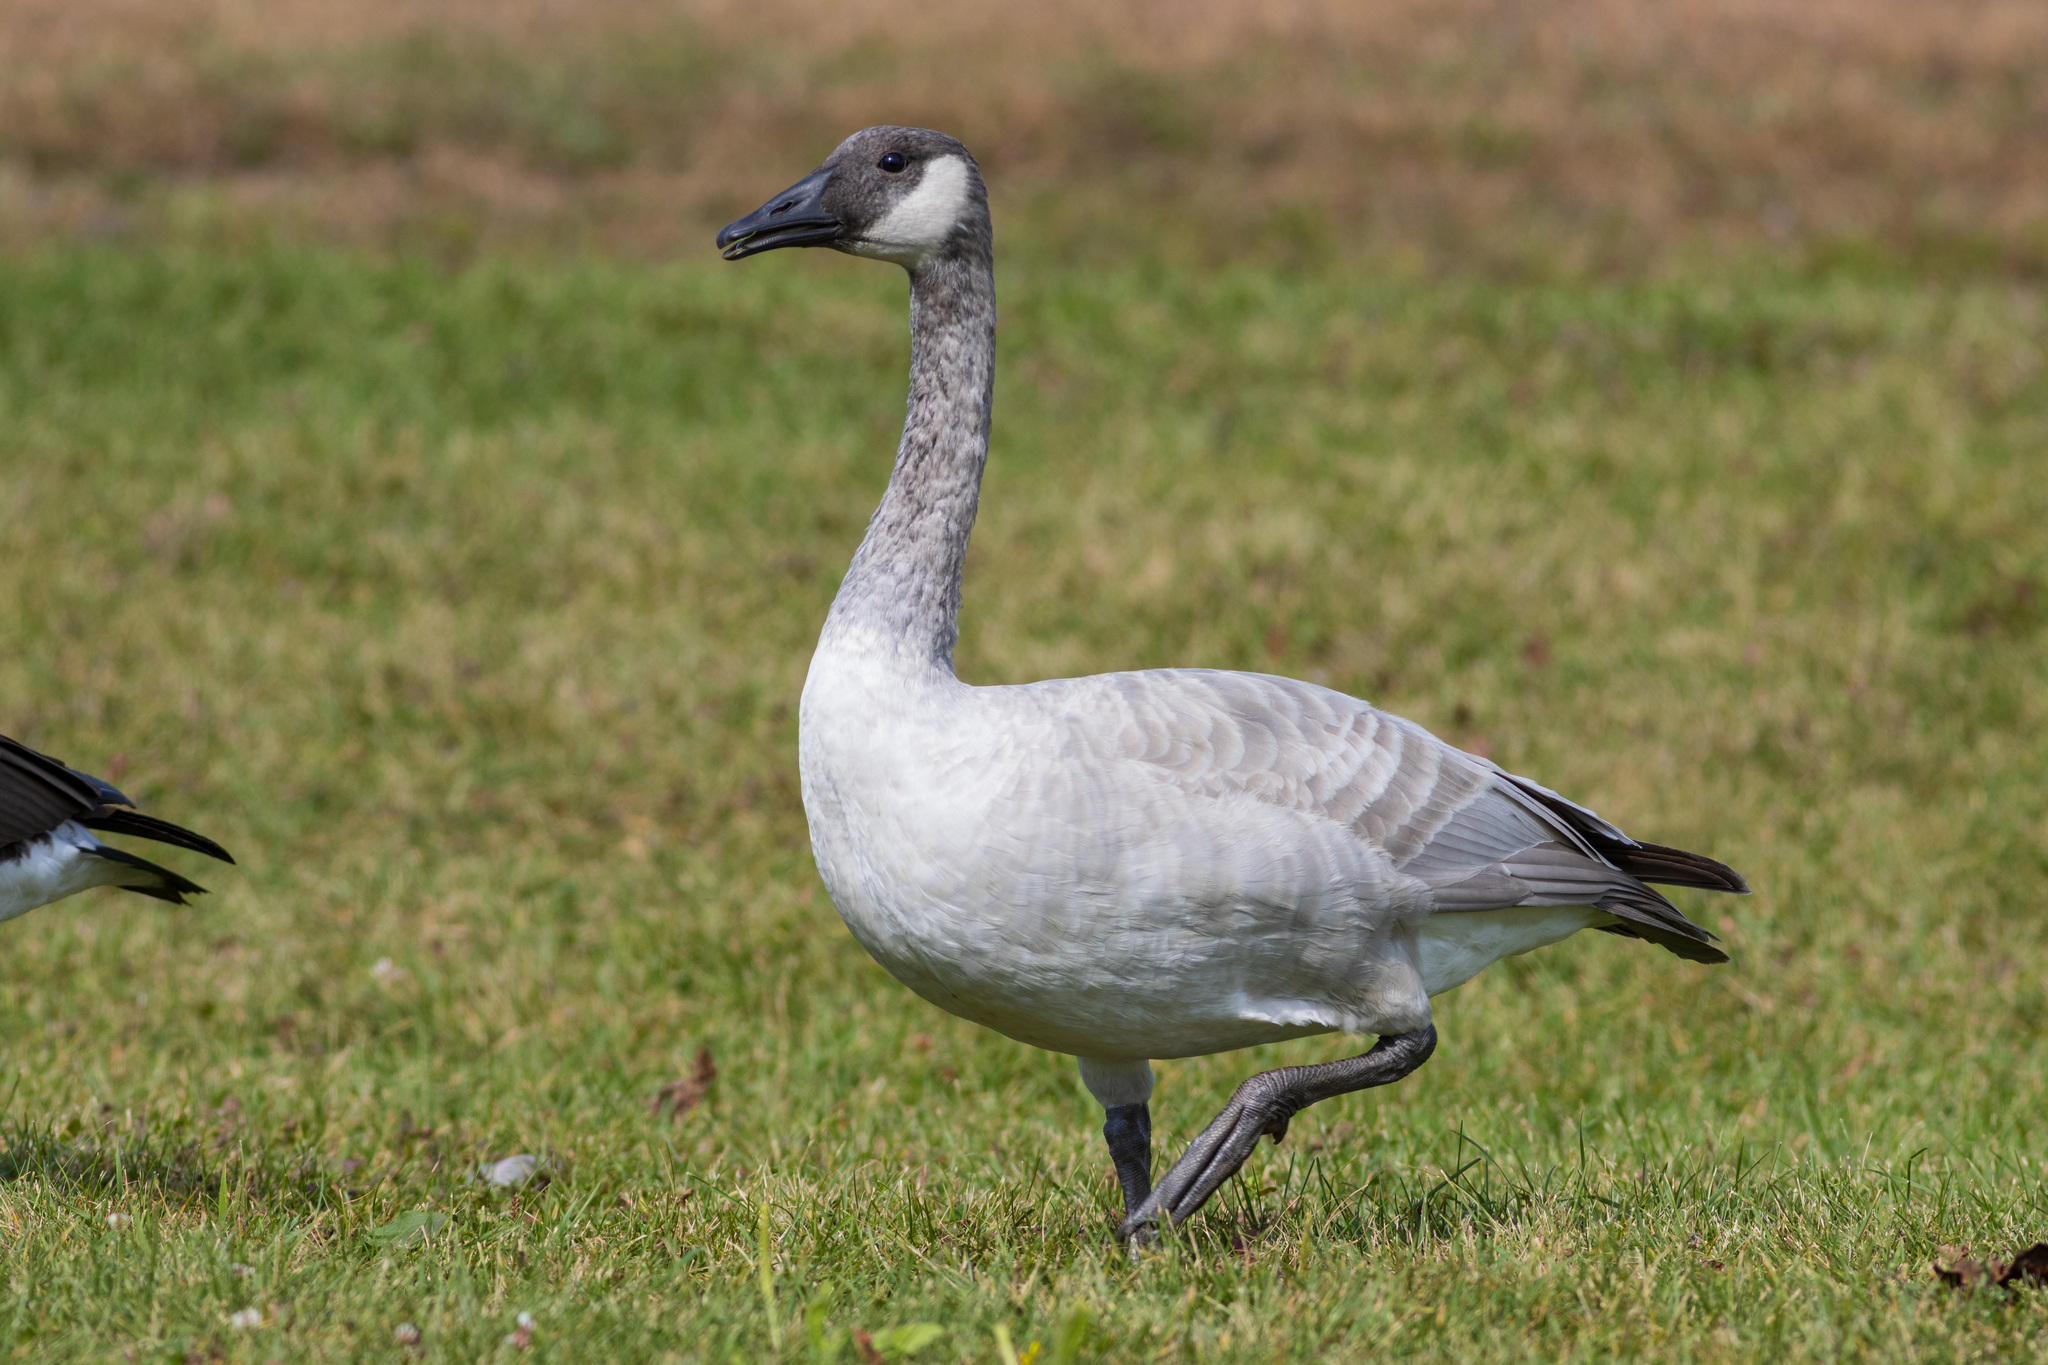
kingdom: Animalia
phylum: Chordata
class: Aves
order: Anseriformes
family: Anatidae
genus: Branta
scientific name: Branta canadensis
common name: Canada goose
